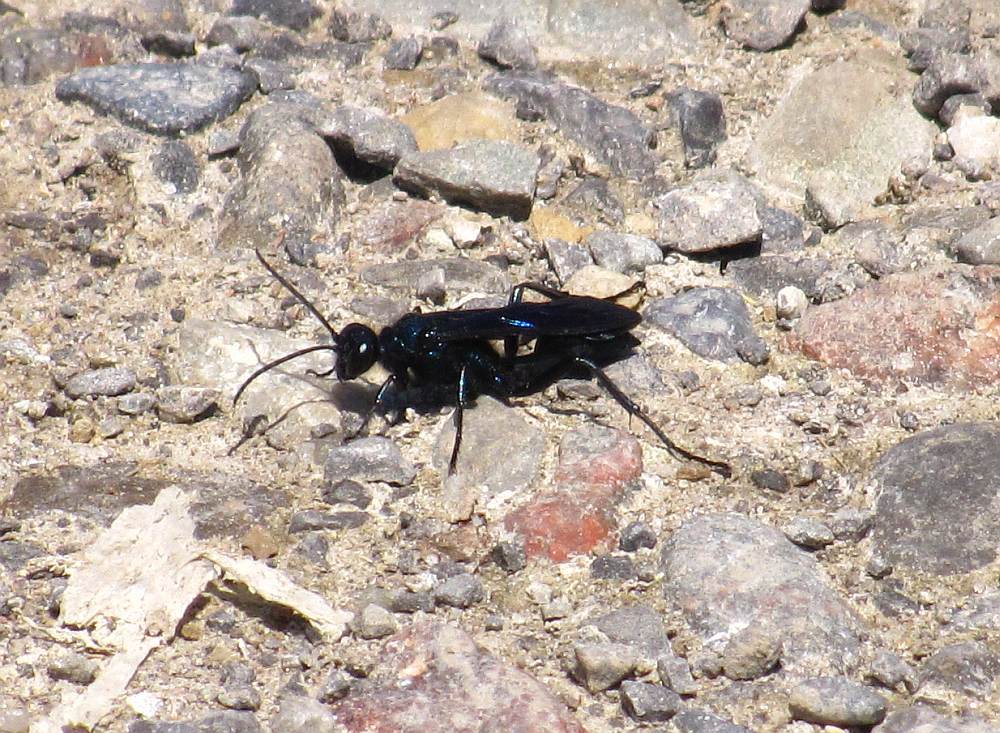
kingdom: Animalia
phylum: Arthropoda
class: Insecta
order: Hymenoptera
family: Sphecidae
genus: Chalybion
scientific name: Chalybion californicum
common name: Mud dauber
